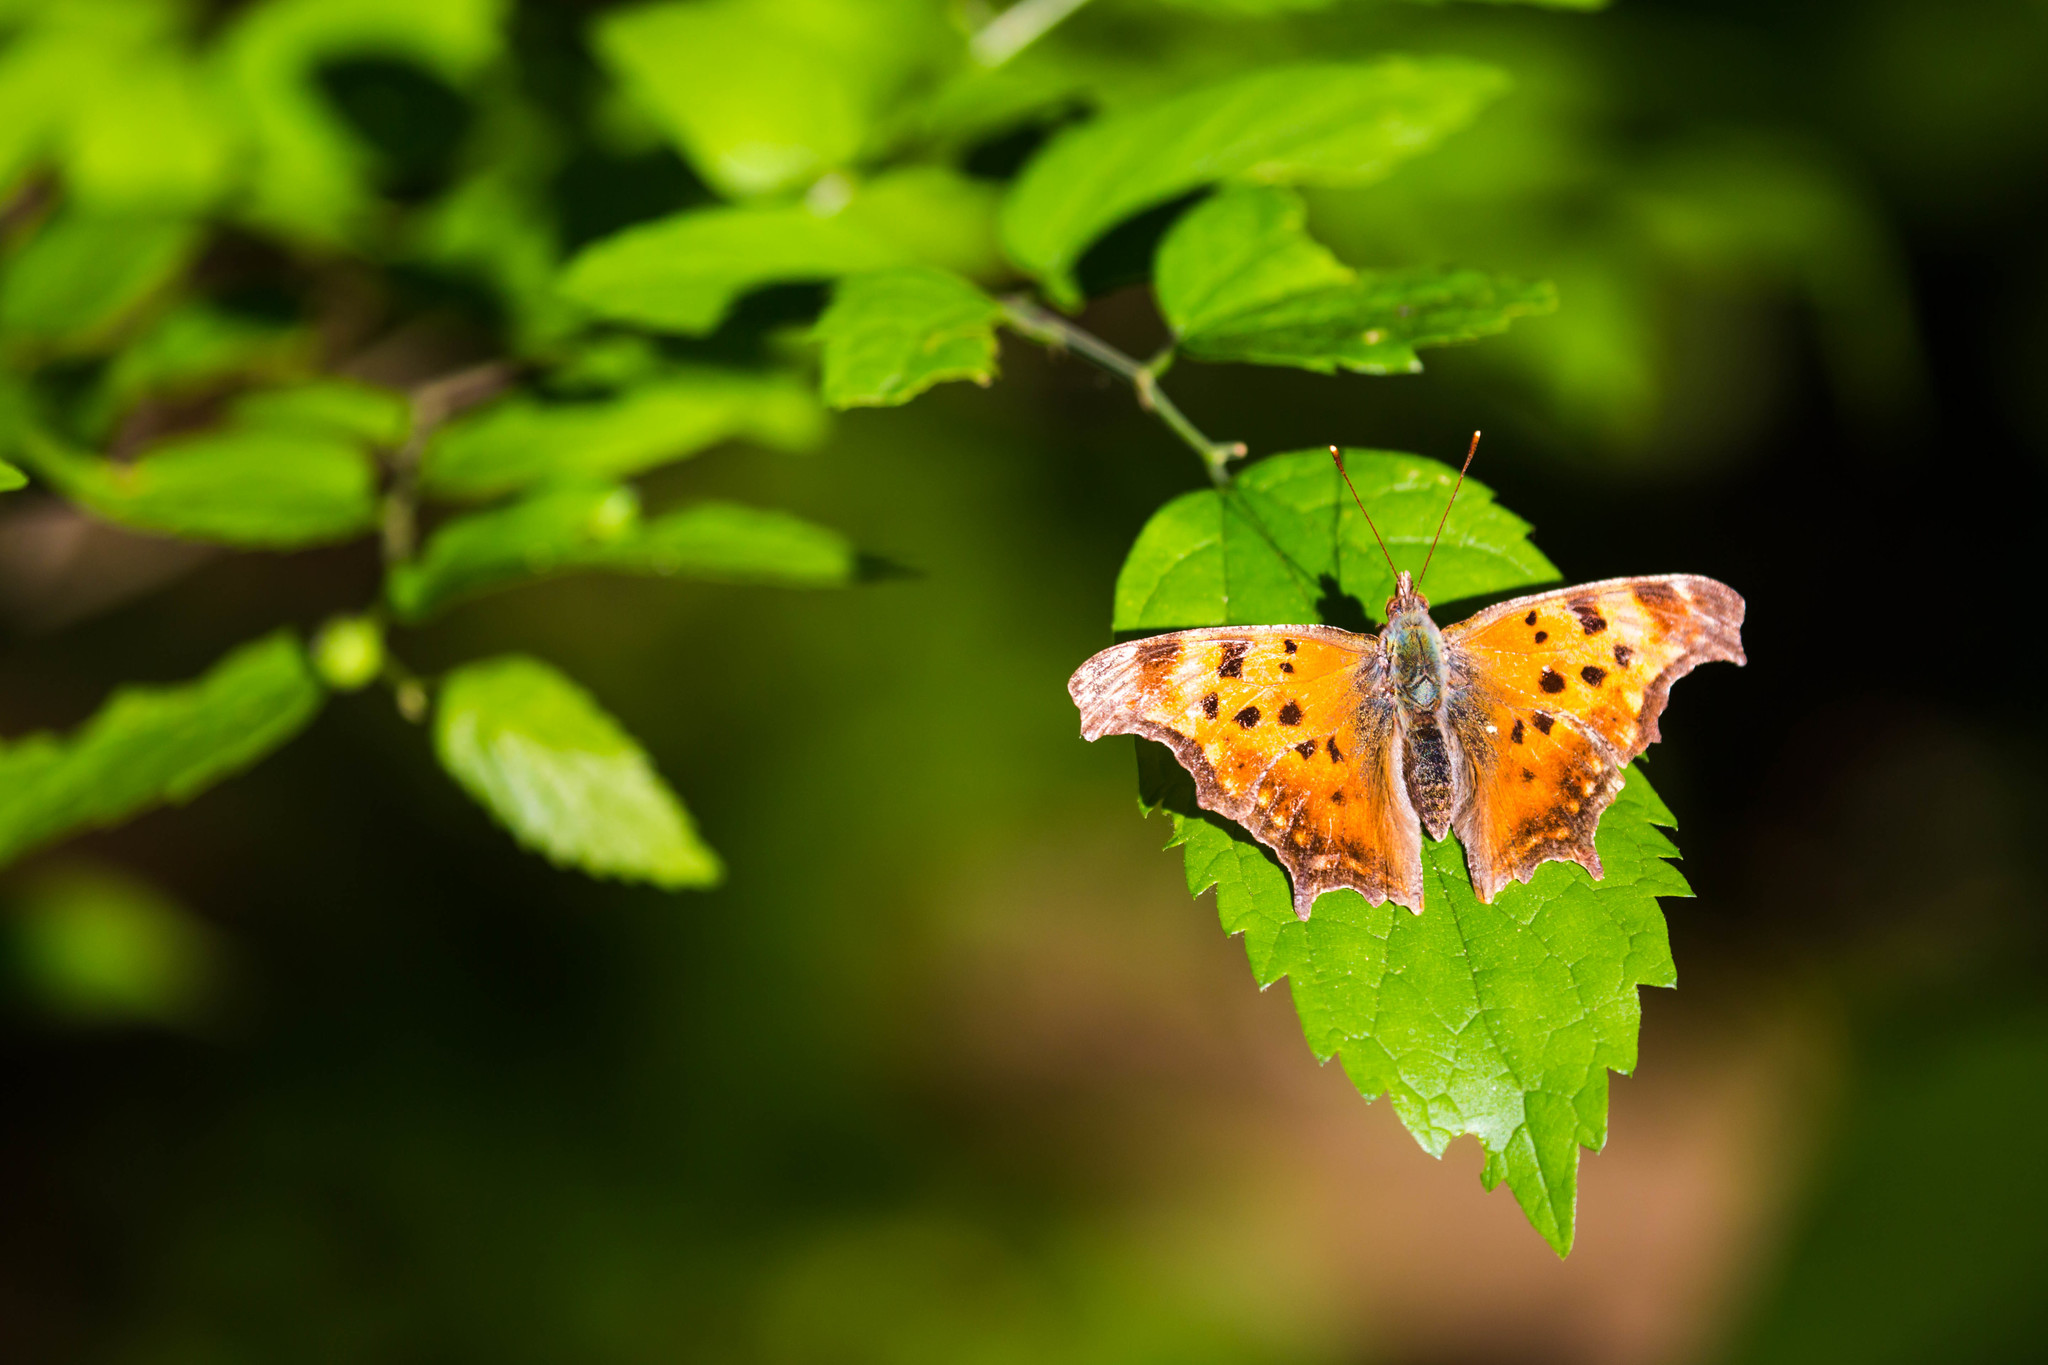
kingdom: Animalia
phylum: Arthropoda
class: Insecta
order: Lepidoptera
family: Nymphalidae
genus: Polygonia
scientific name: Polygonia comma
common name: Eastern comma
